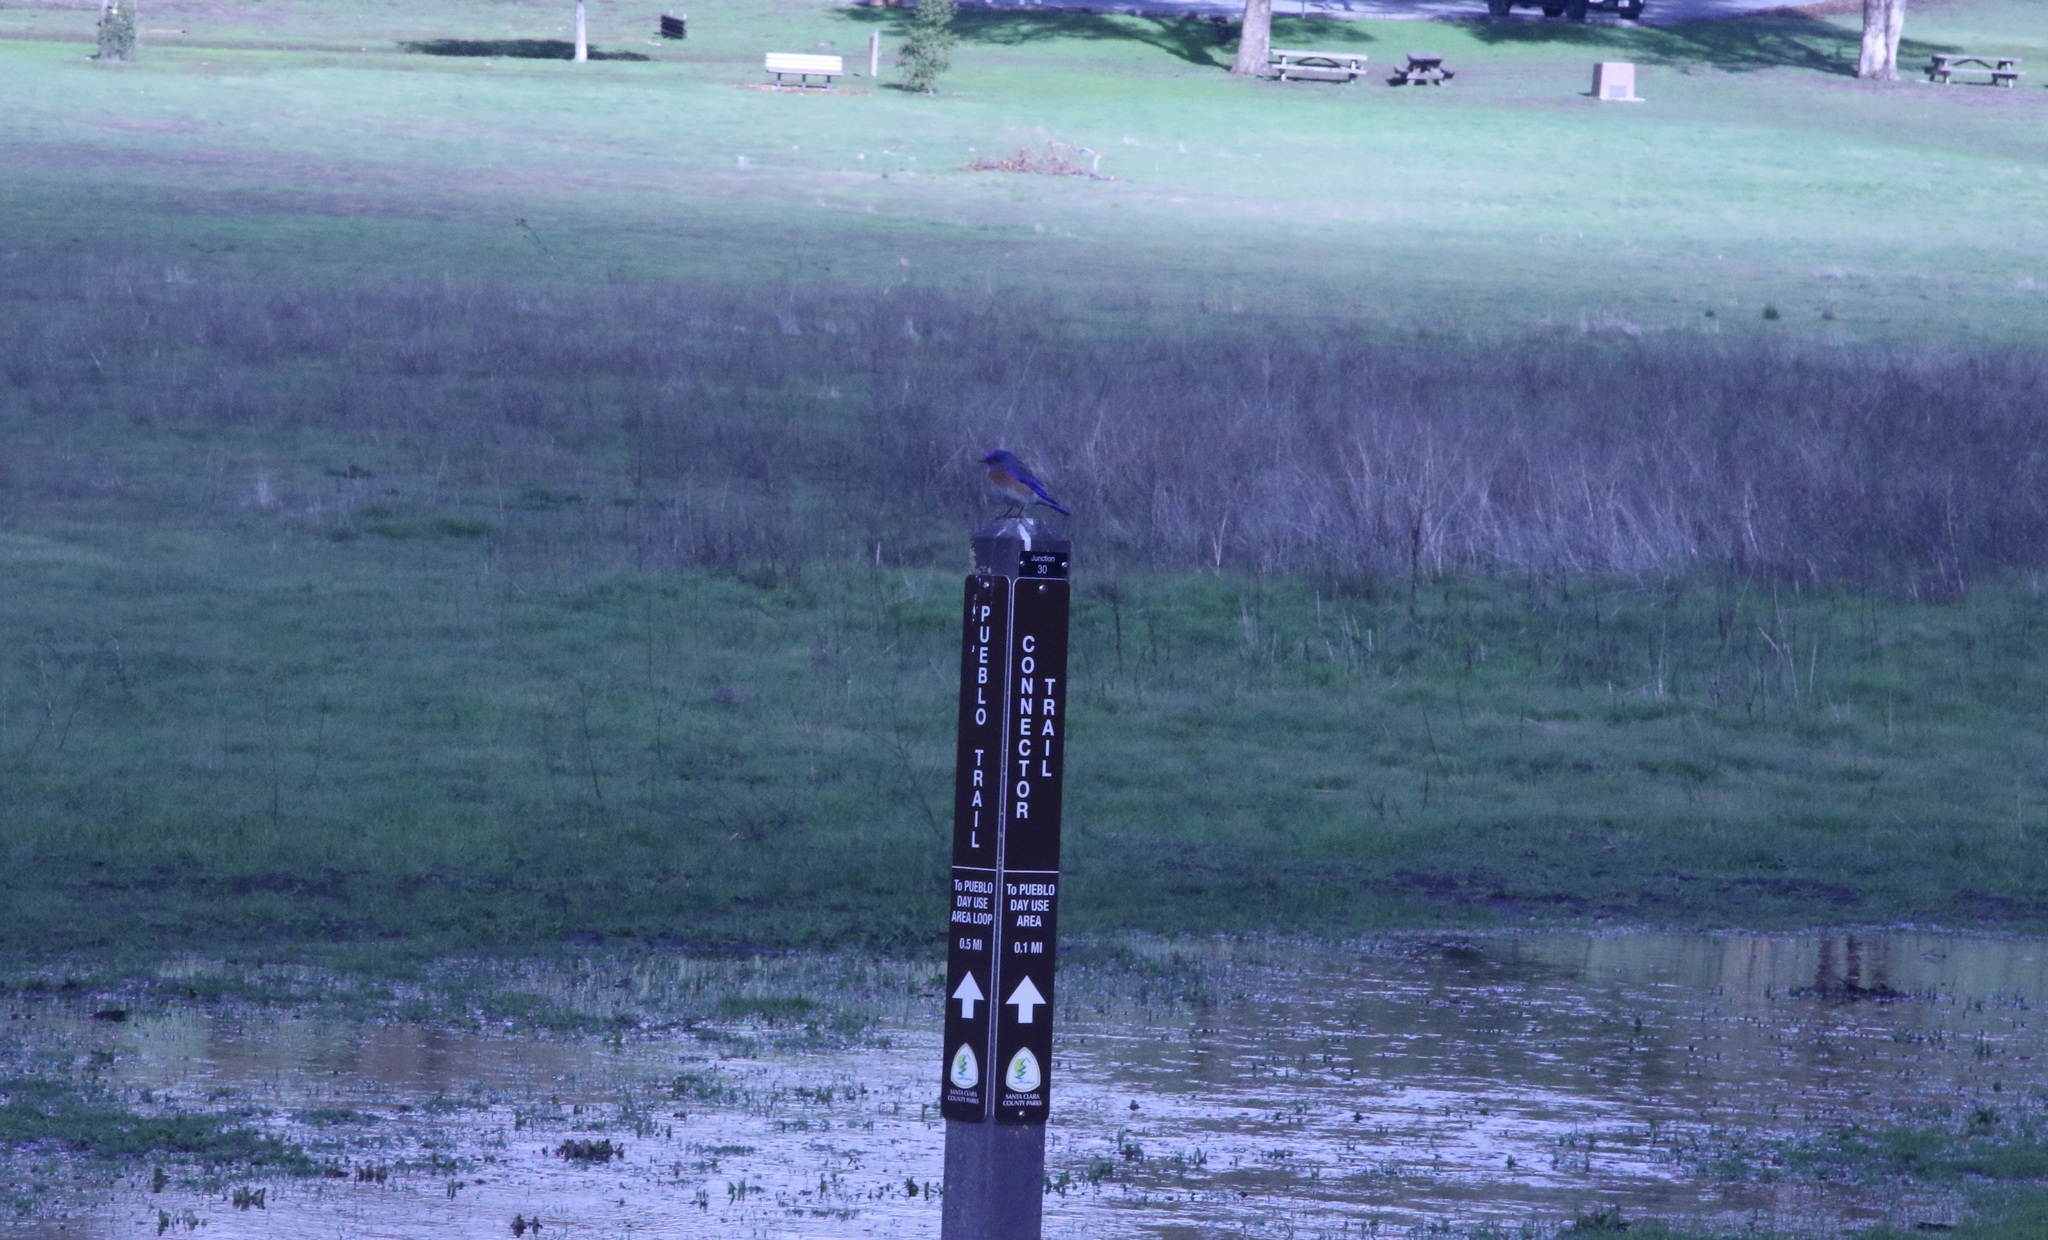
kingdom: Animalia
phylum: Chordata
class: Aves
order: Passeriformes
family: Turdidae
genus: Sialia
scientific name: Sialia mexicana
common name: Western bluebird
